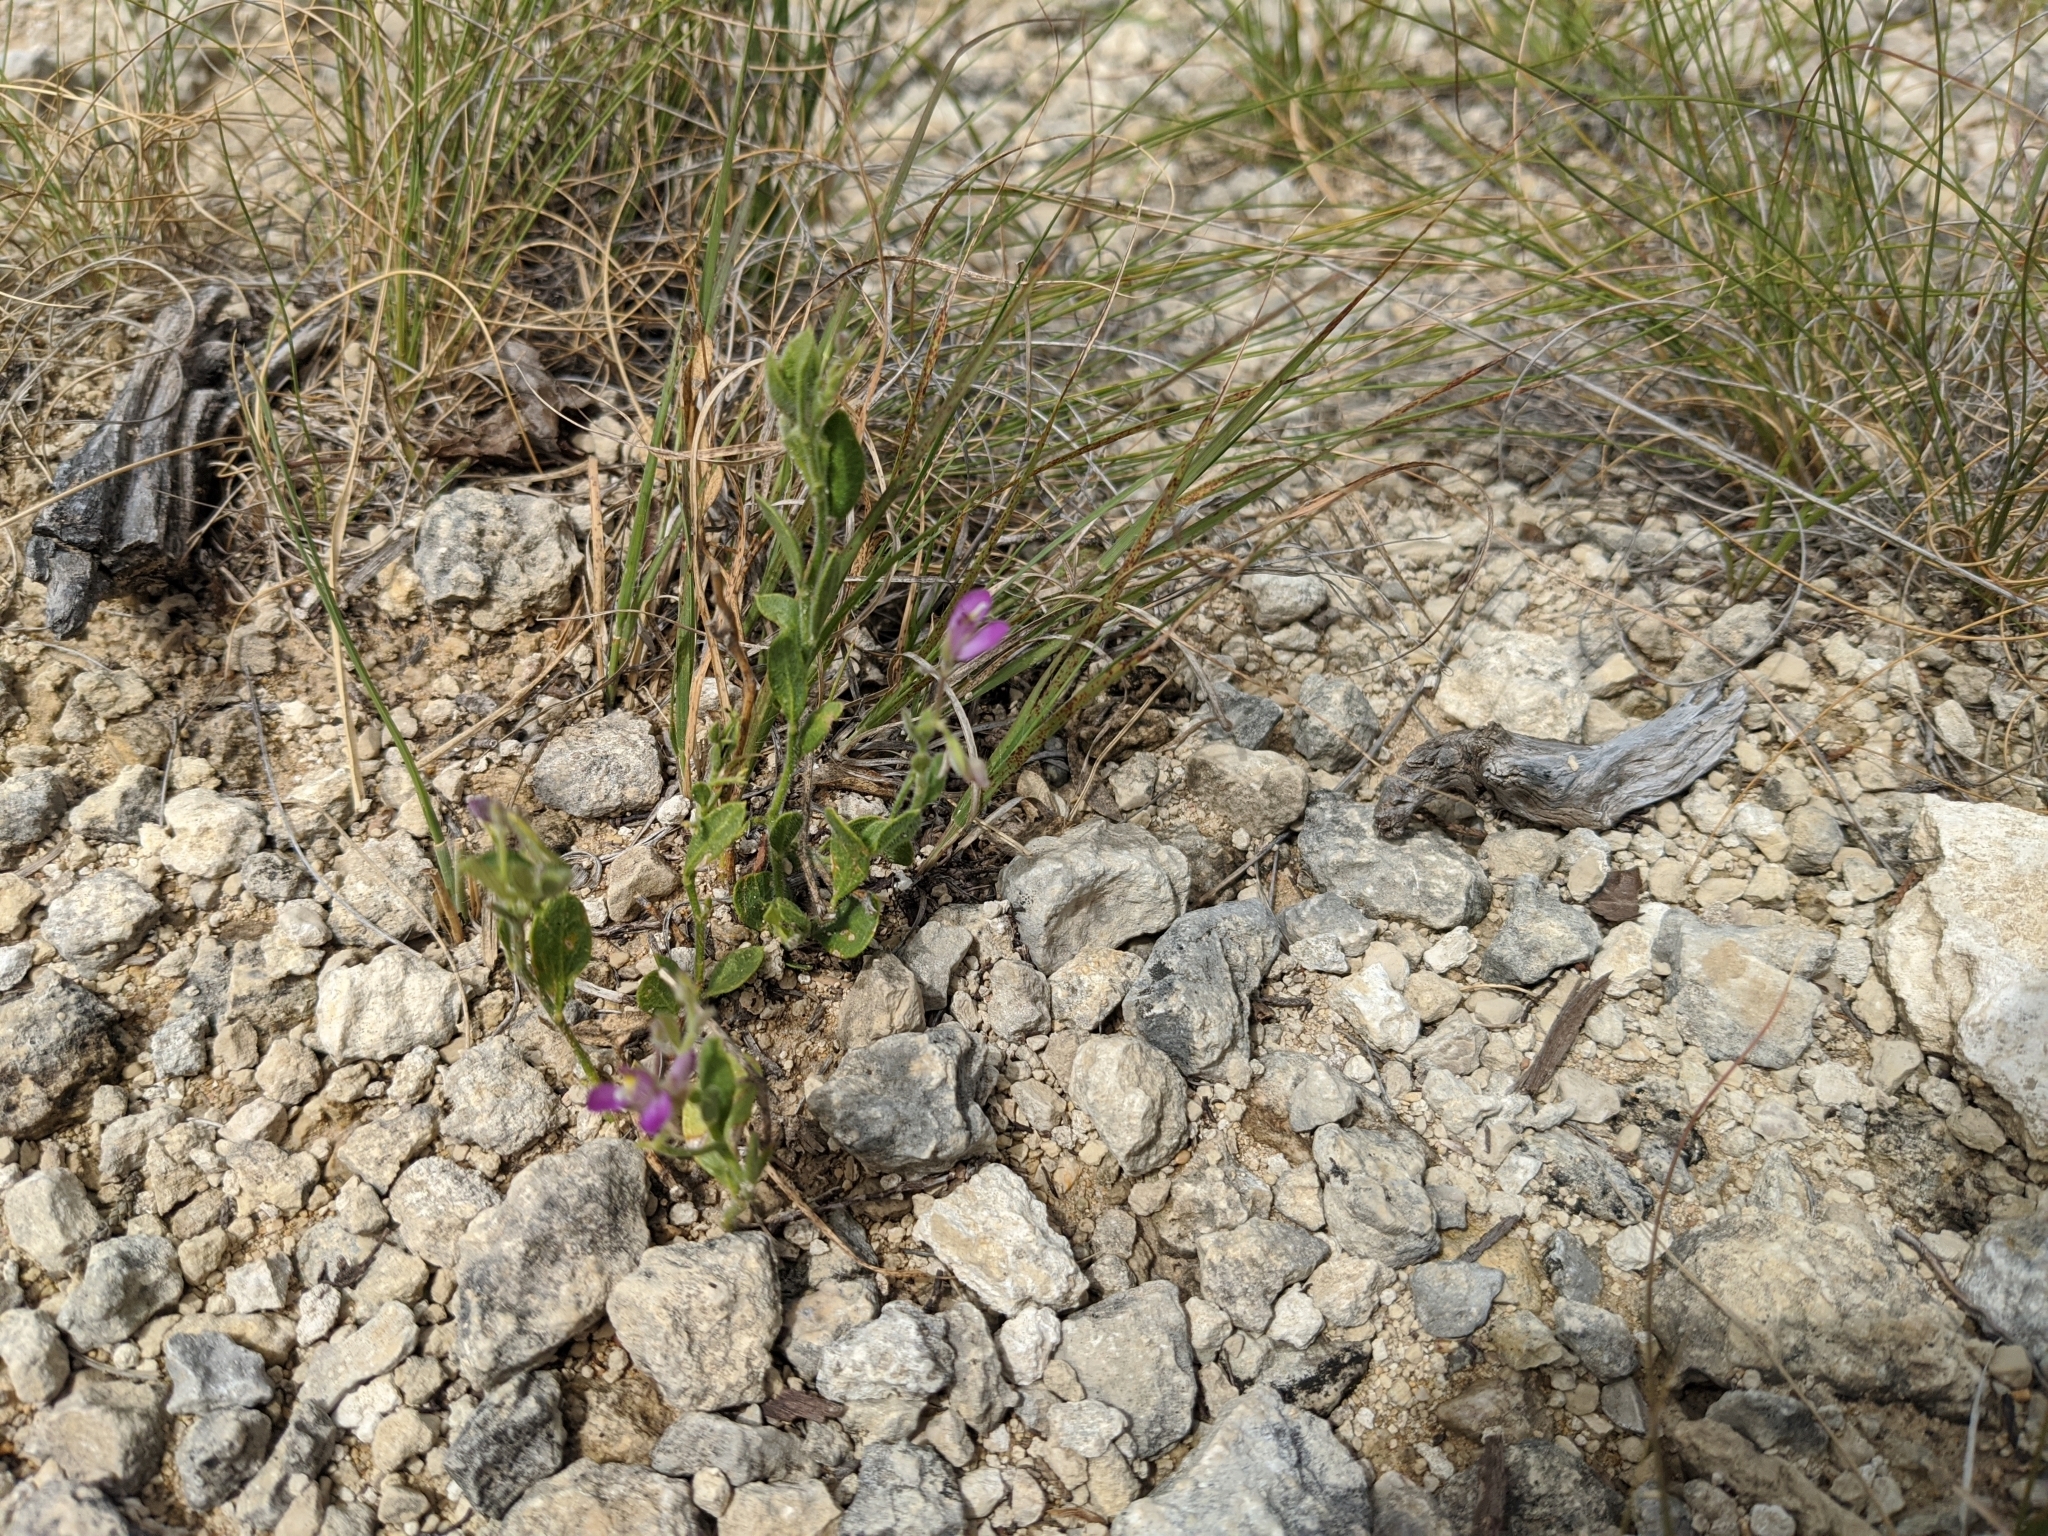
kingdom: Plantae
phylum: Tracheophyta
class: Magnoliopsida
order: Fabales
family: Polygalaceae
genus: Rhinotropis
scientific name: Rhinotropis lindheimeri
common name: Shrubby milkwort
